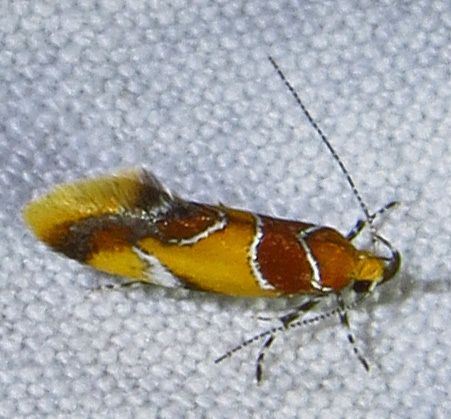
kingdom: Animalia
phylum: Arthropoda
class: Insecta
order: Lepidoptera
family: Oecophoridae
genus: Callima
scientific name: Callima argenticinctella
